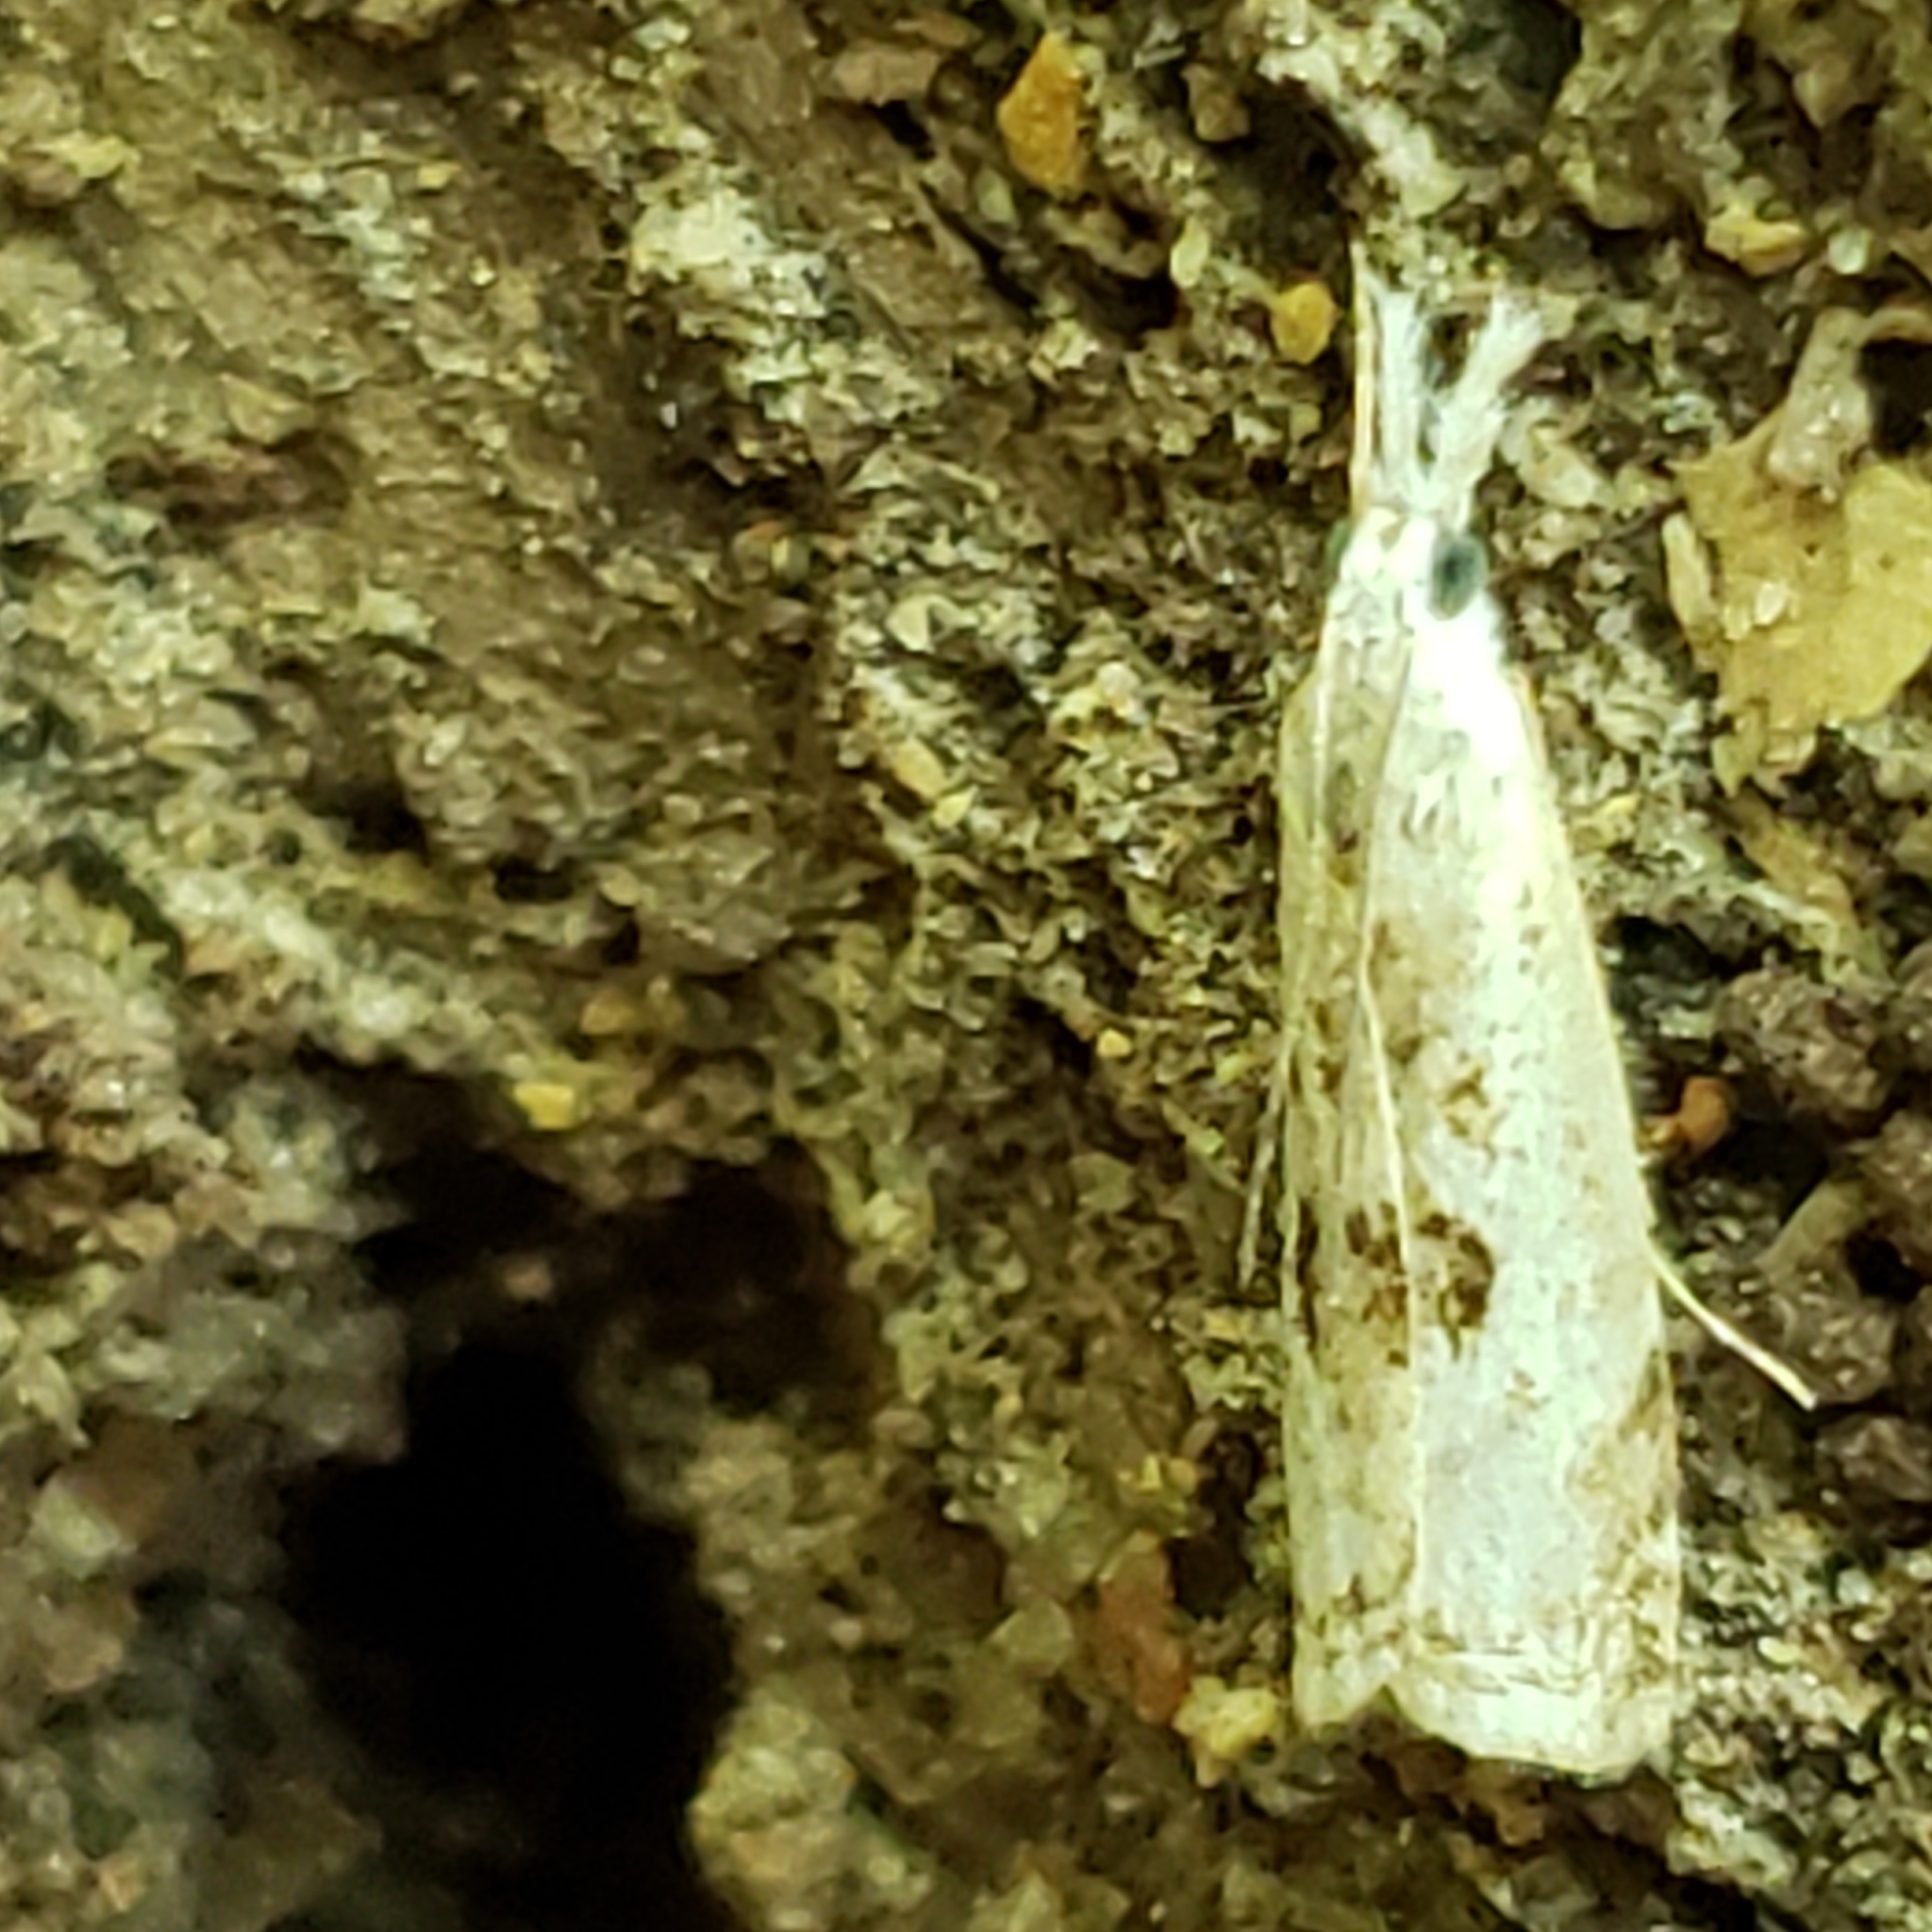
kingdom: Animalia
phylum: Arthropoda
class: Insecta
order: Lepidoptera
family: Crambidae
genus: Microcrambus
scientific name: Microcrambus elegans
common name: Elegant grass-veneer
